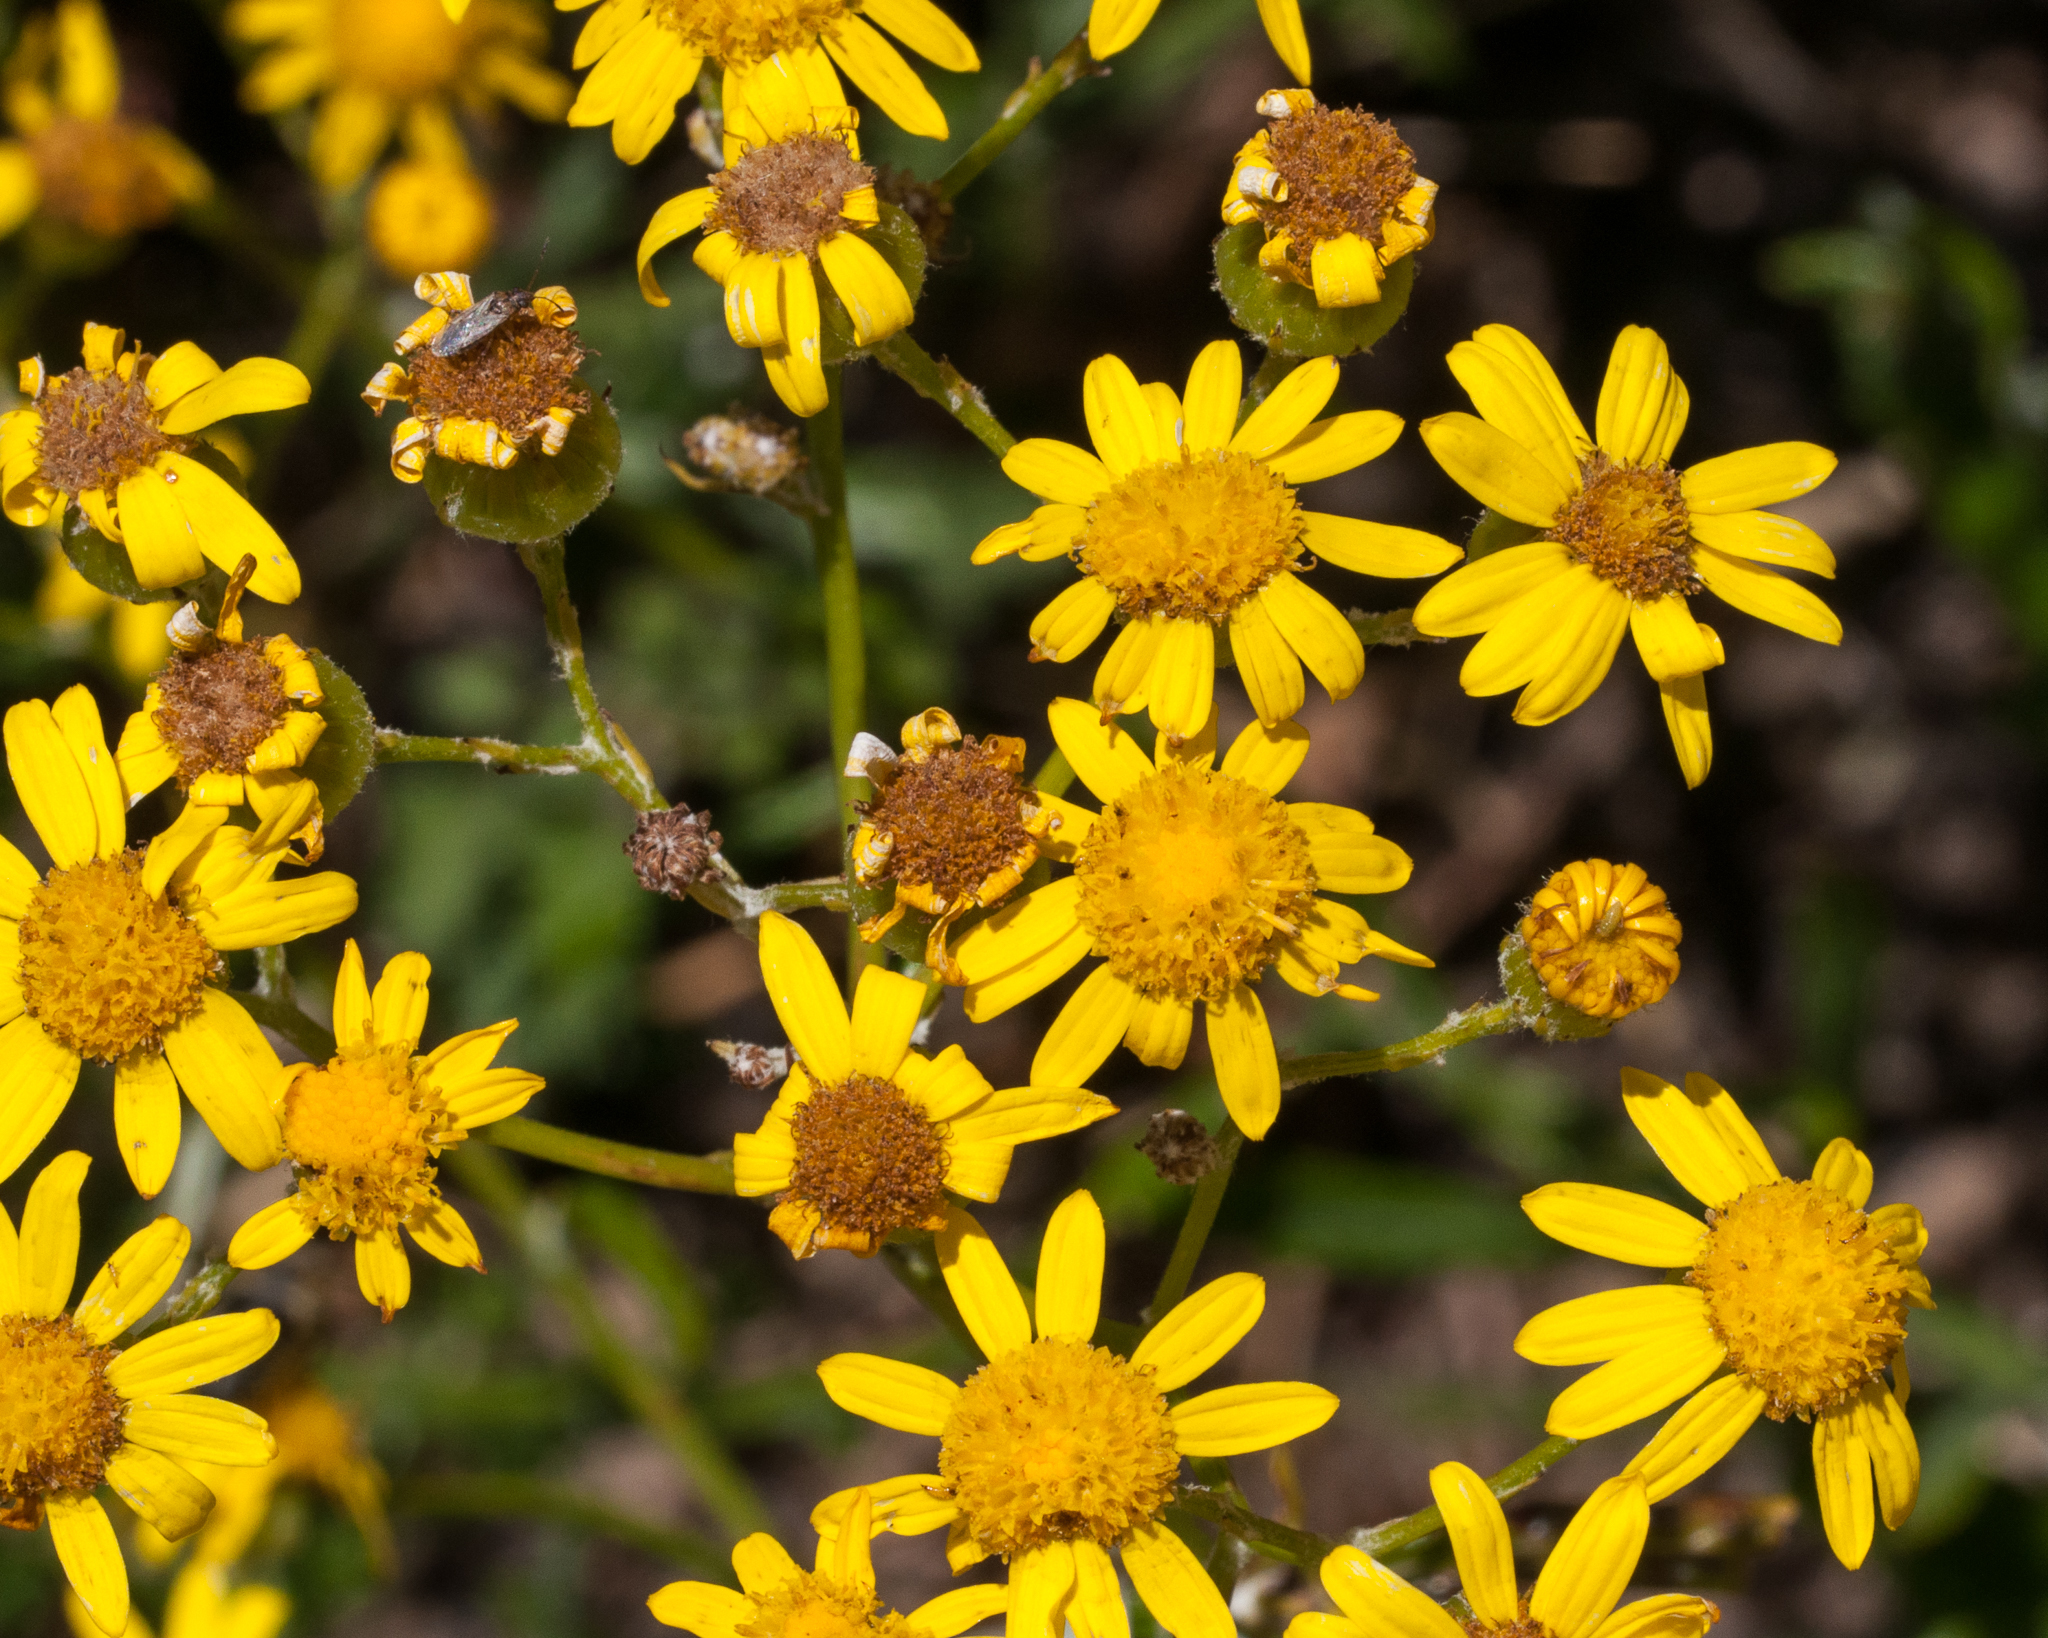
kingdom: Plantae
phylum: Tracheophyta
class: Magnoliopsida
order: Asterales
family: Asteraceae
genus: Senecio
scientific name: Senecio pterophorus
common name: Shoddy ragwort
